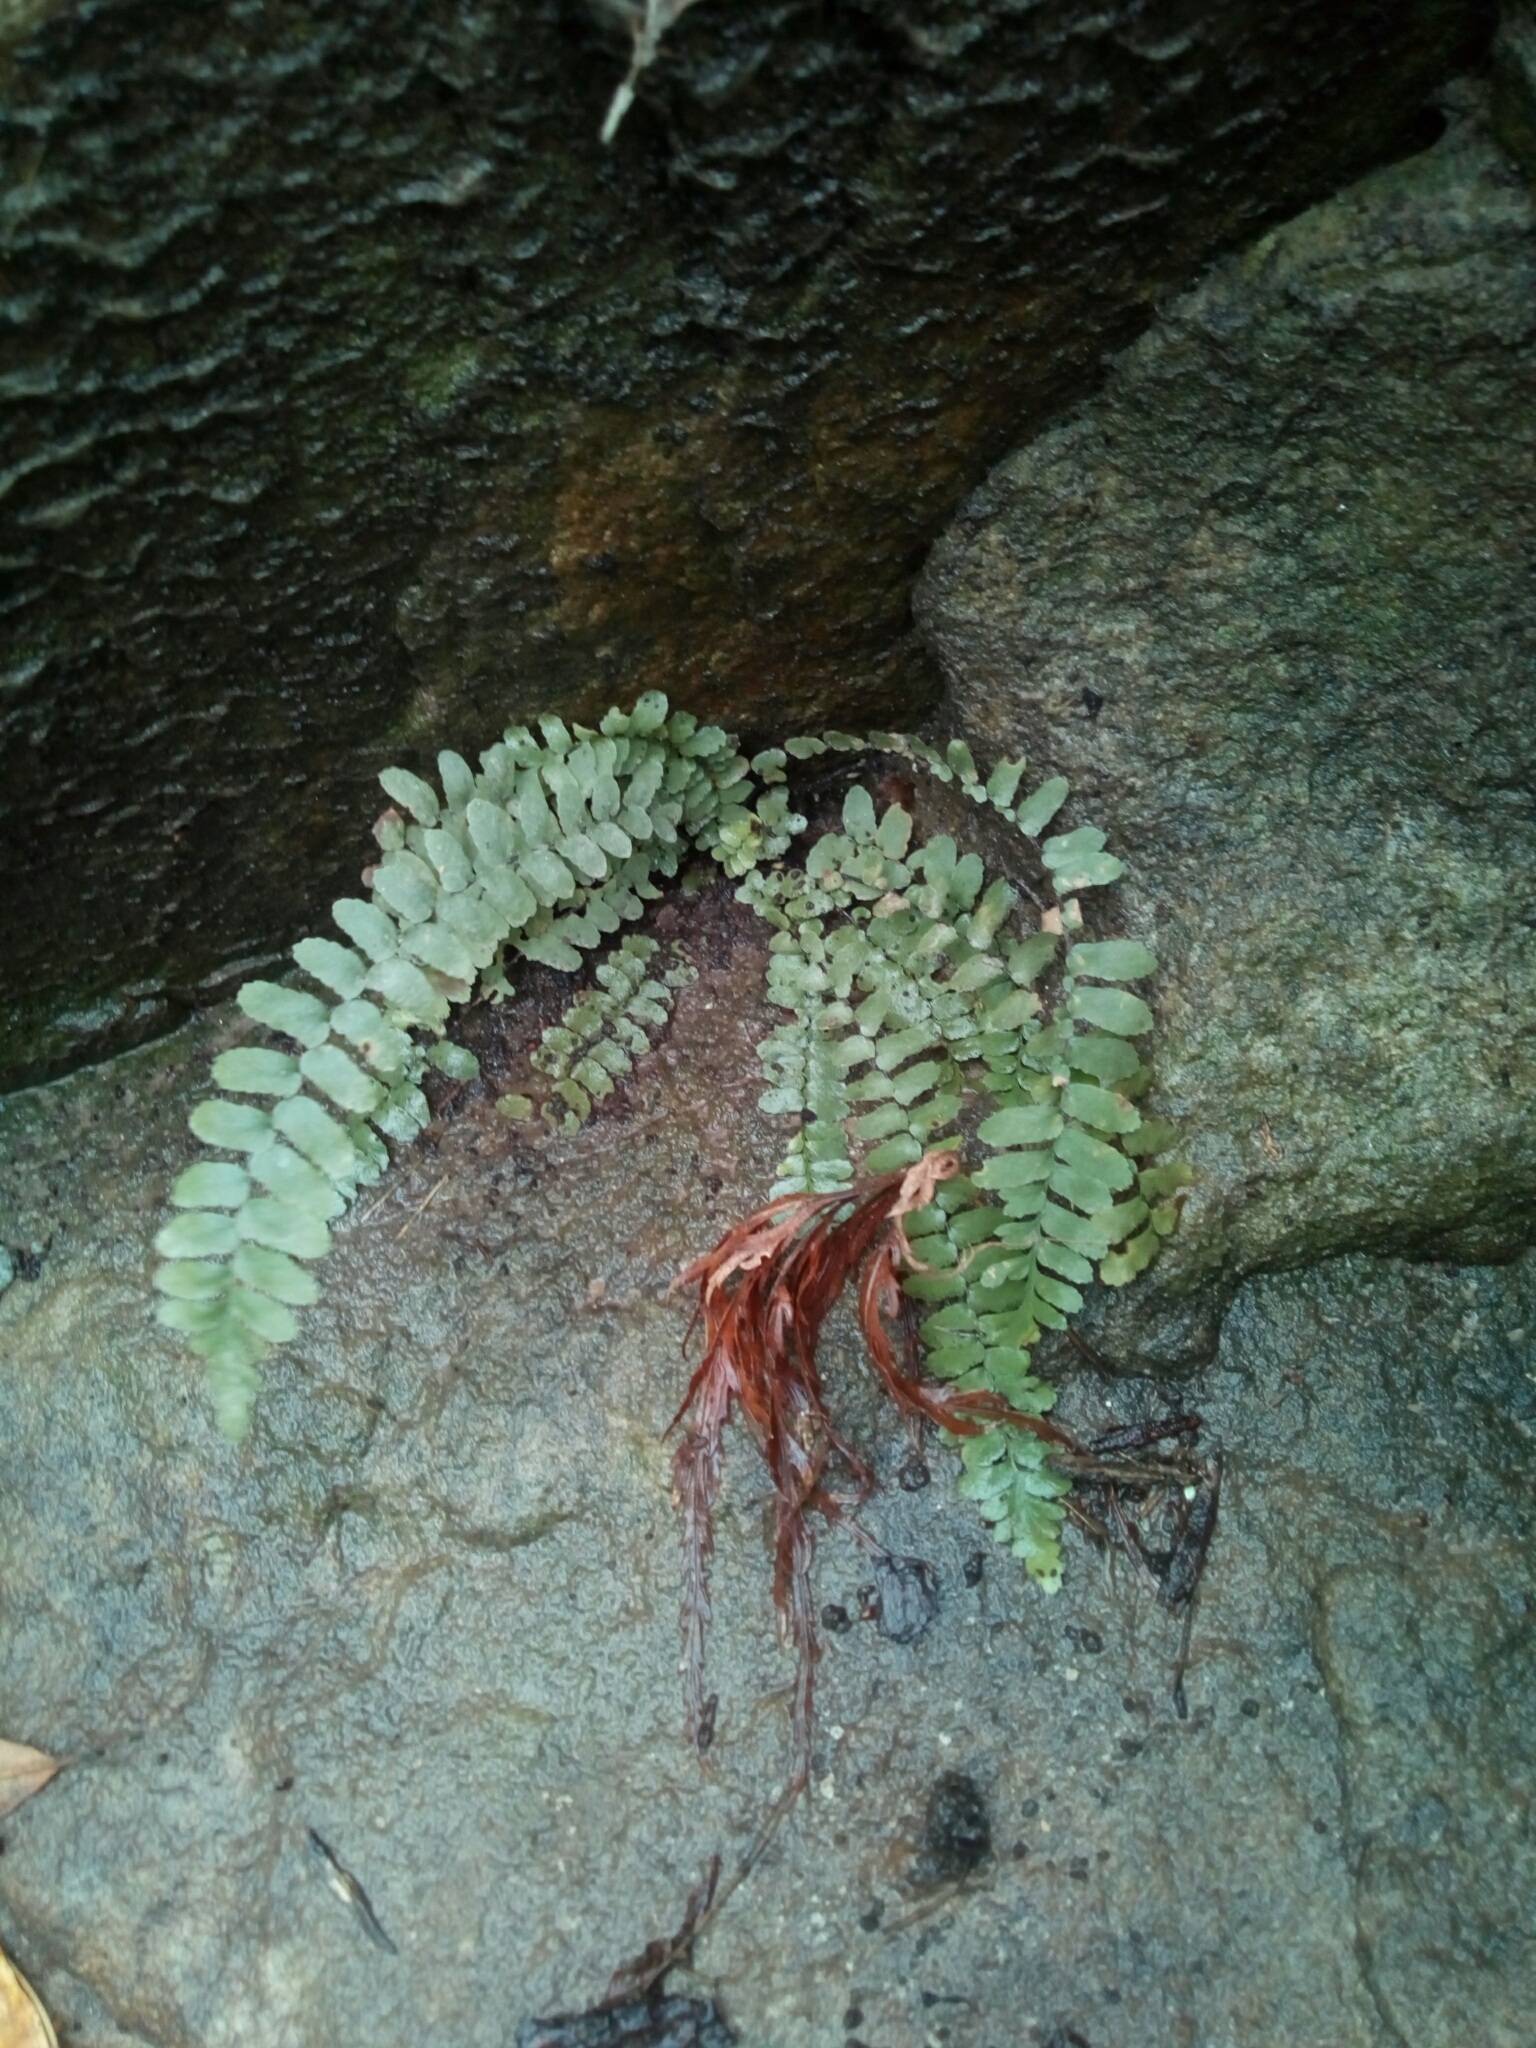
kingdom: Plantae
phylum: Tracheophyta
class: Polypodiopsida
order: Polypodiales
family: Aspleniaceae
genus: Asplenium
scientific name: Asplenium platyneuron
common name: Ebony spleenwort
